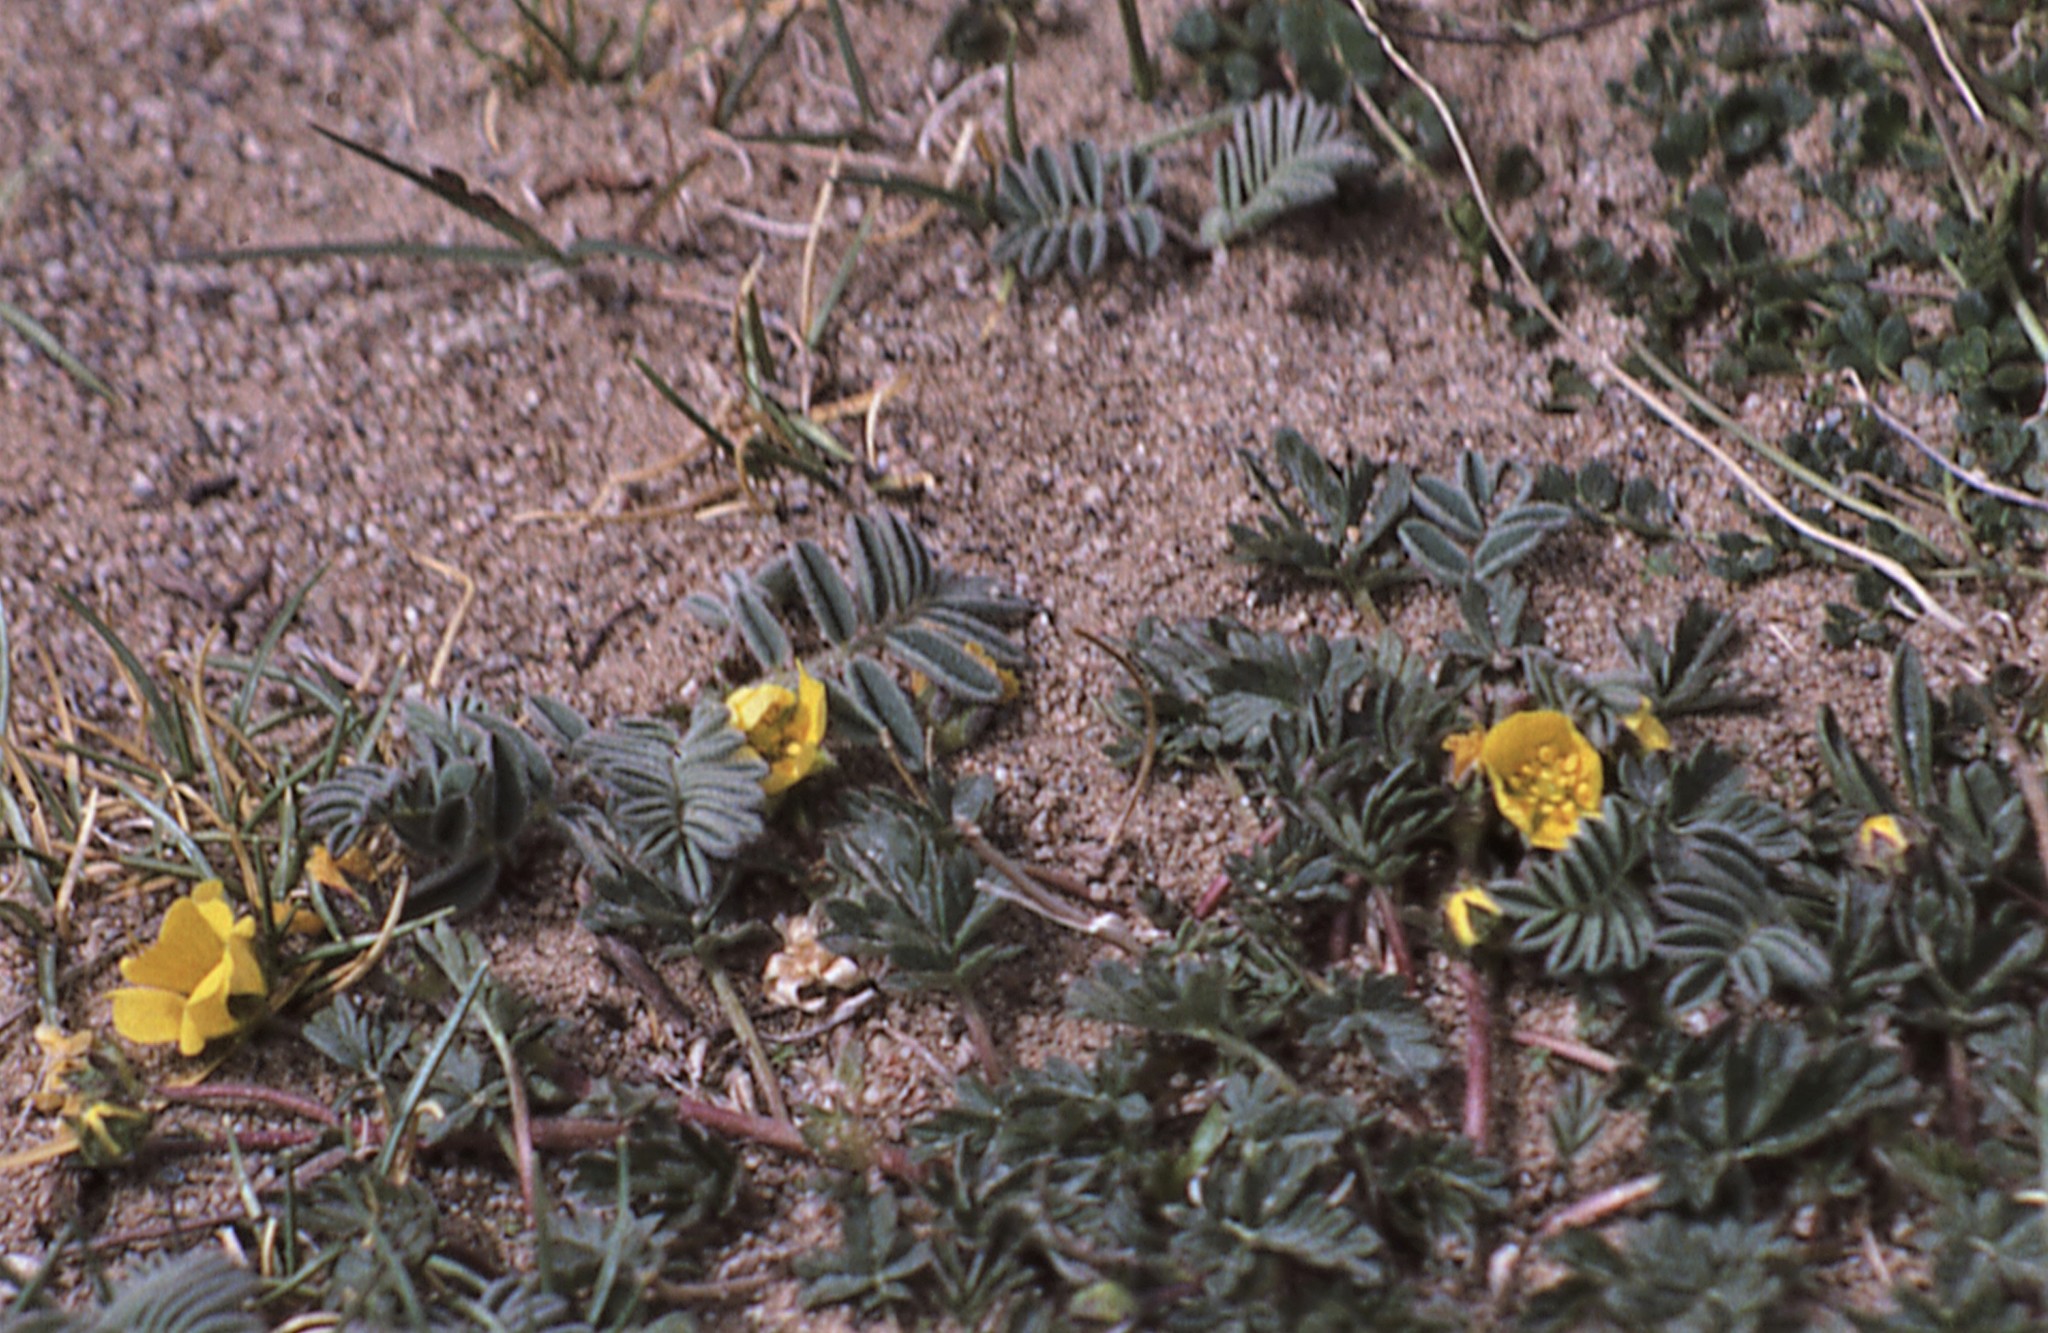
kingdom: Plantae
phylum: Tracheophyta
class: Magnoliopsida
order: Zygophyllales
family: Zygophyllaceae
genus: Tribulus
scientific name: Tribulus terrestris
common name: Puncturevine
